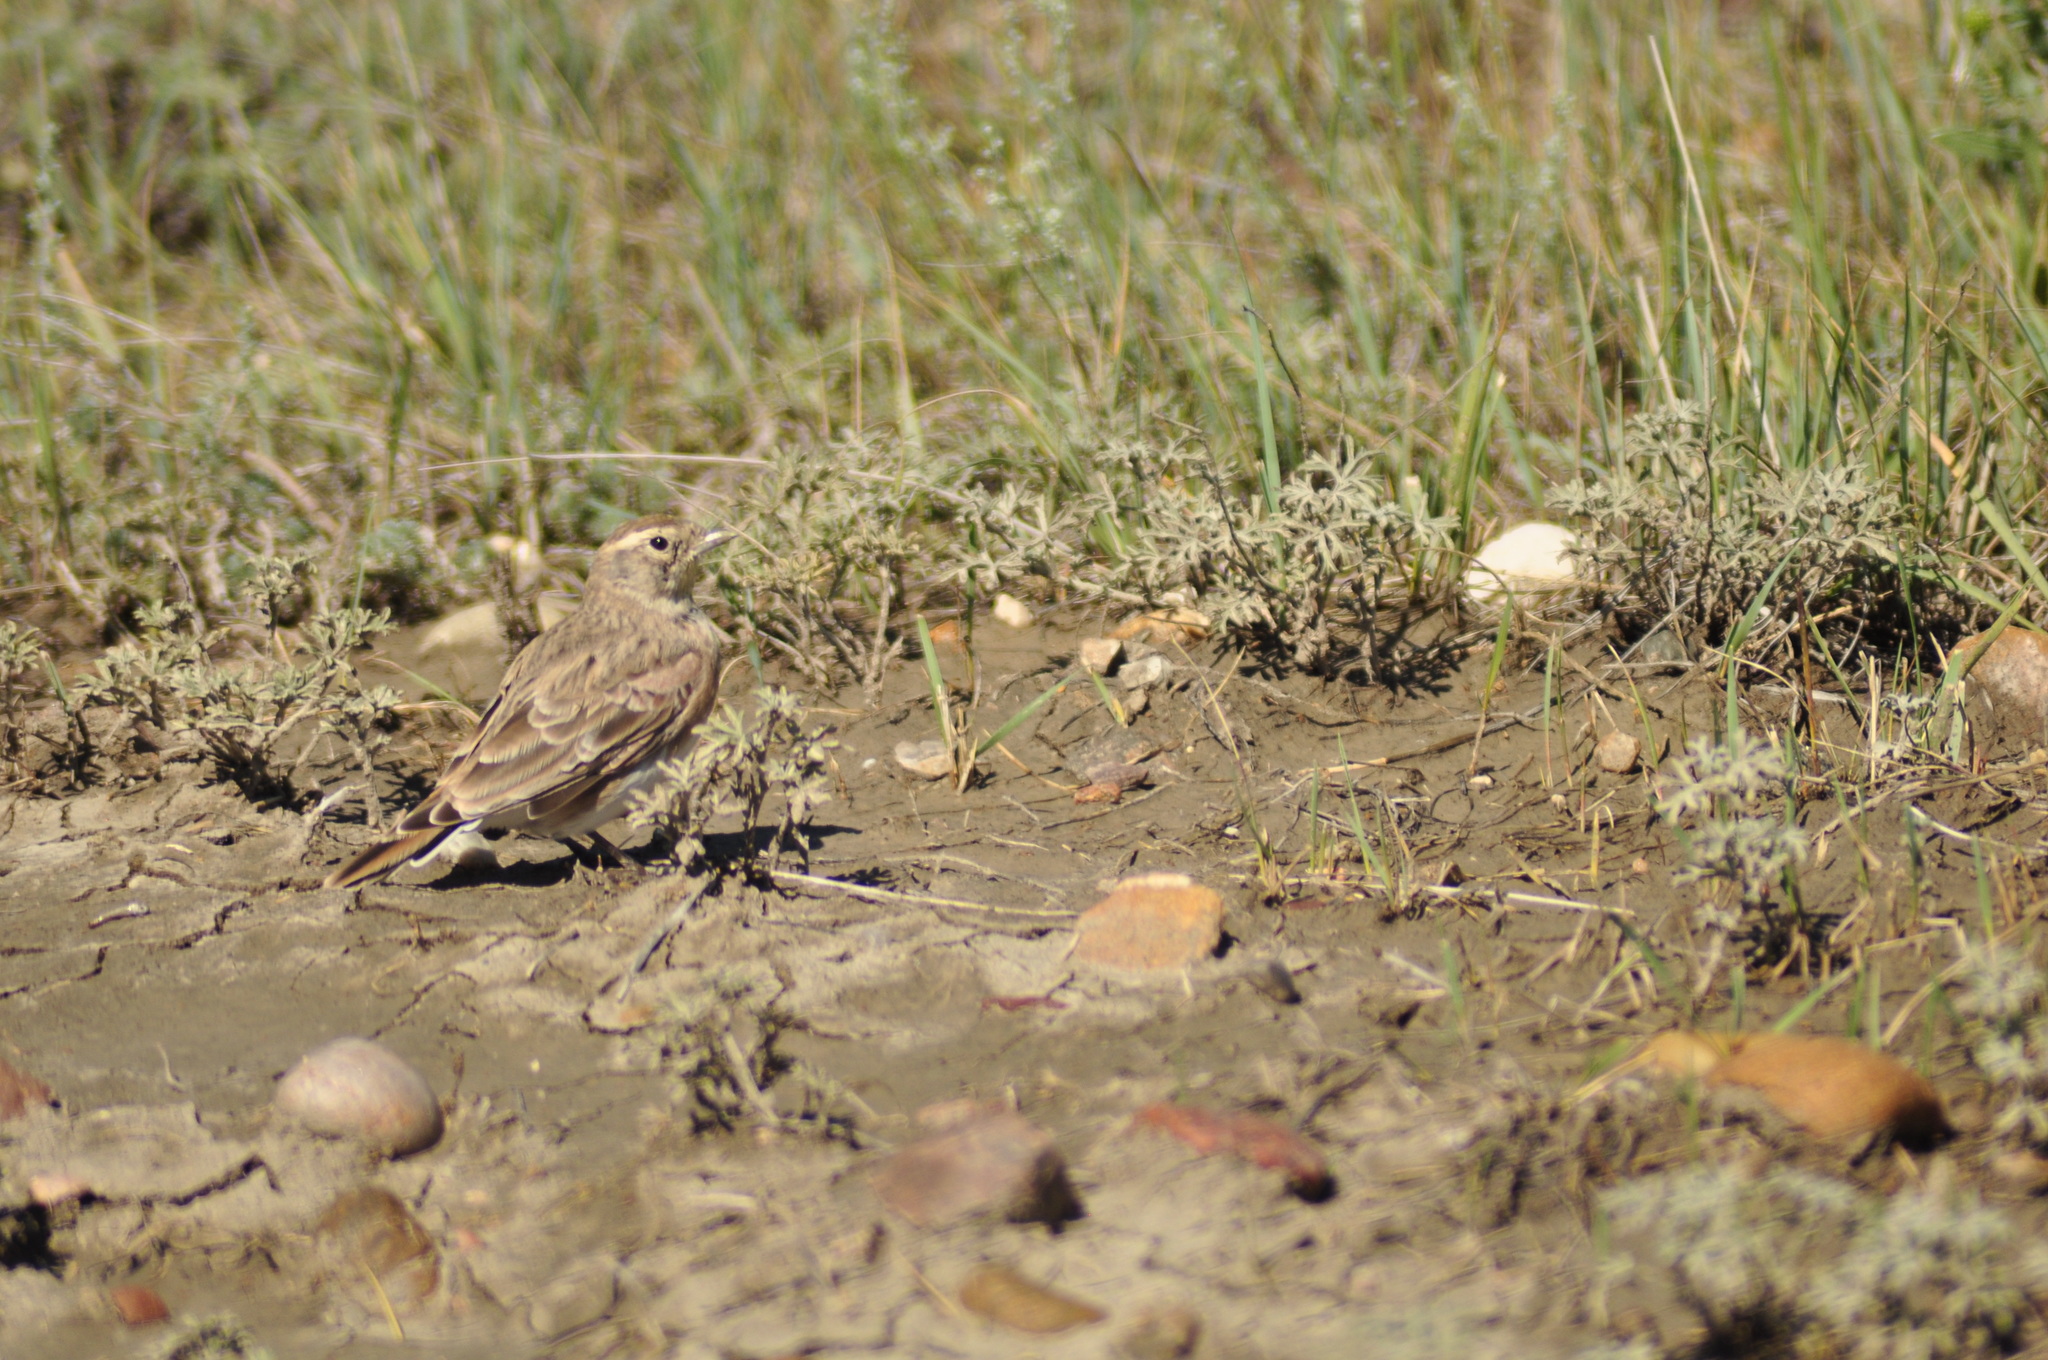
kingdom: Animalia
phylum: Chordata
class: Aves
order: Passeriformes
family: Alaudidae
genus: Eremophila
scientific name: Eremophila alpestris
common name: Horned lark
